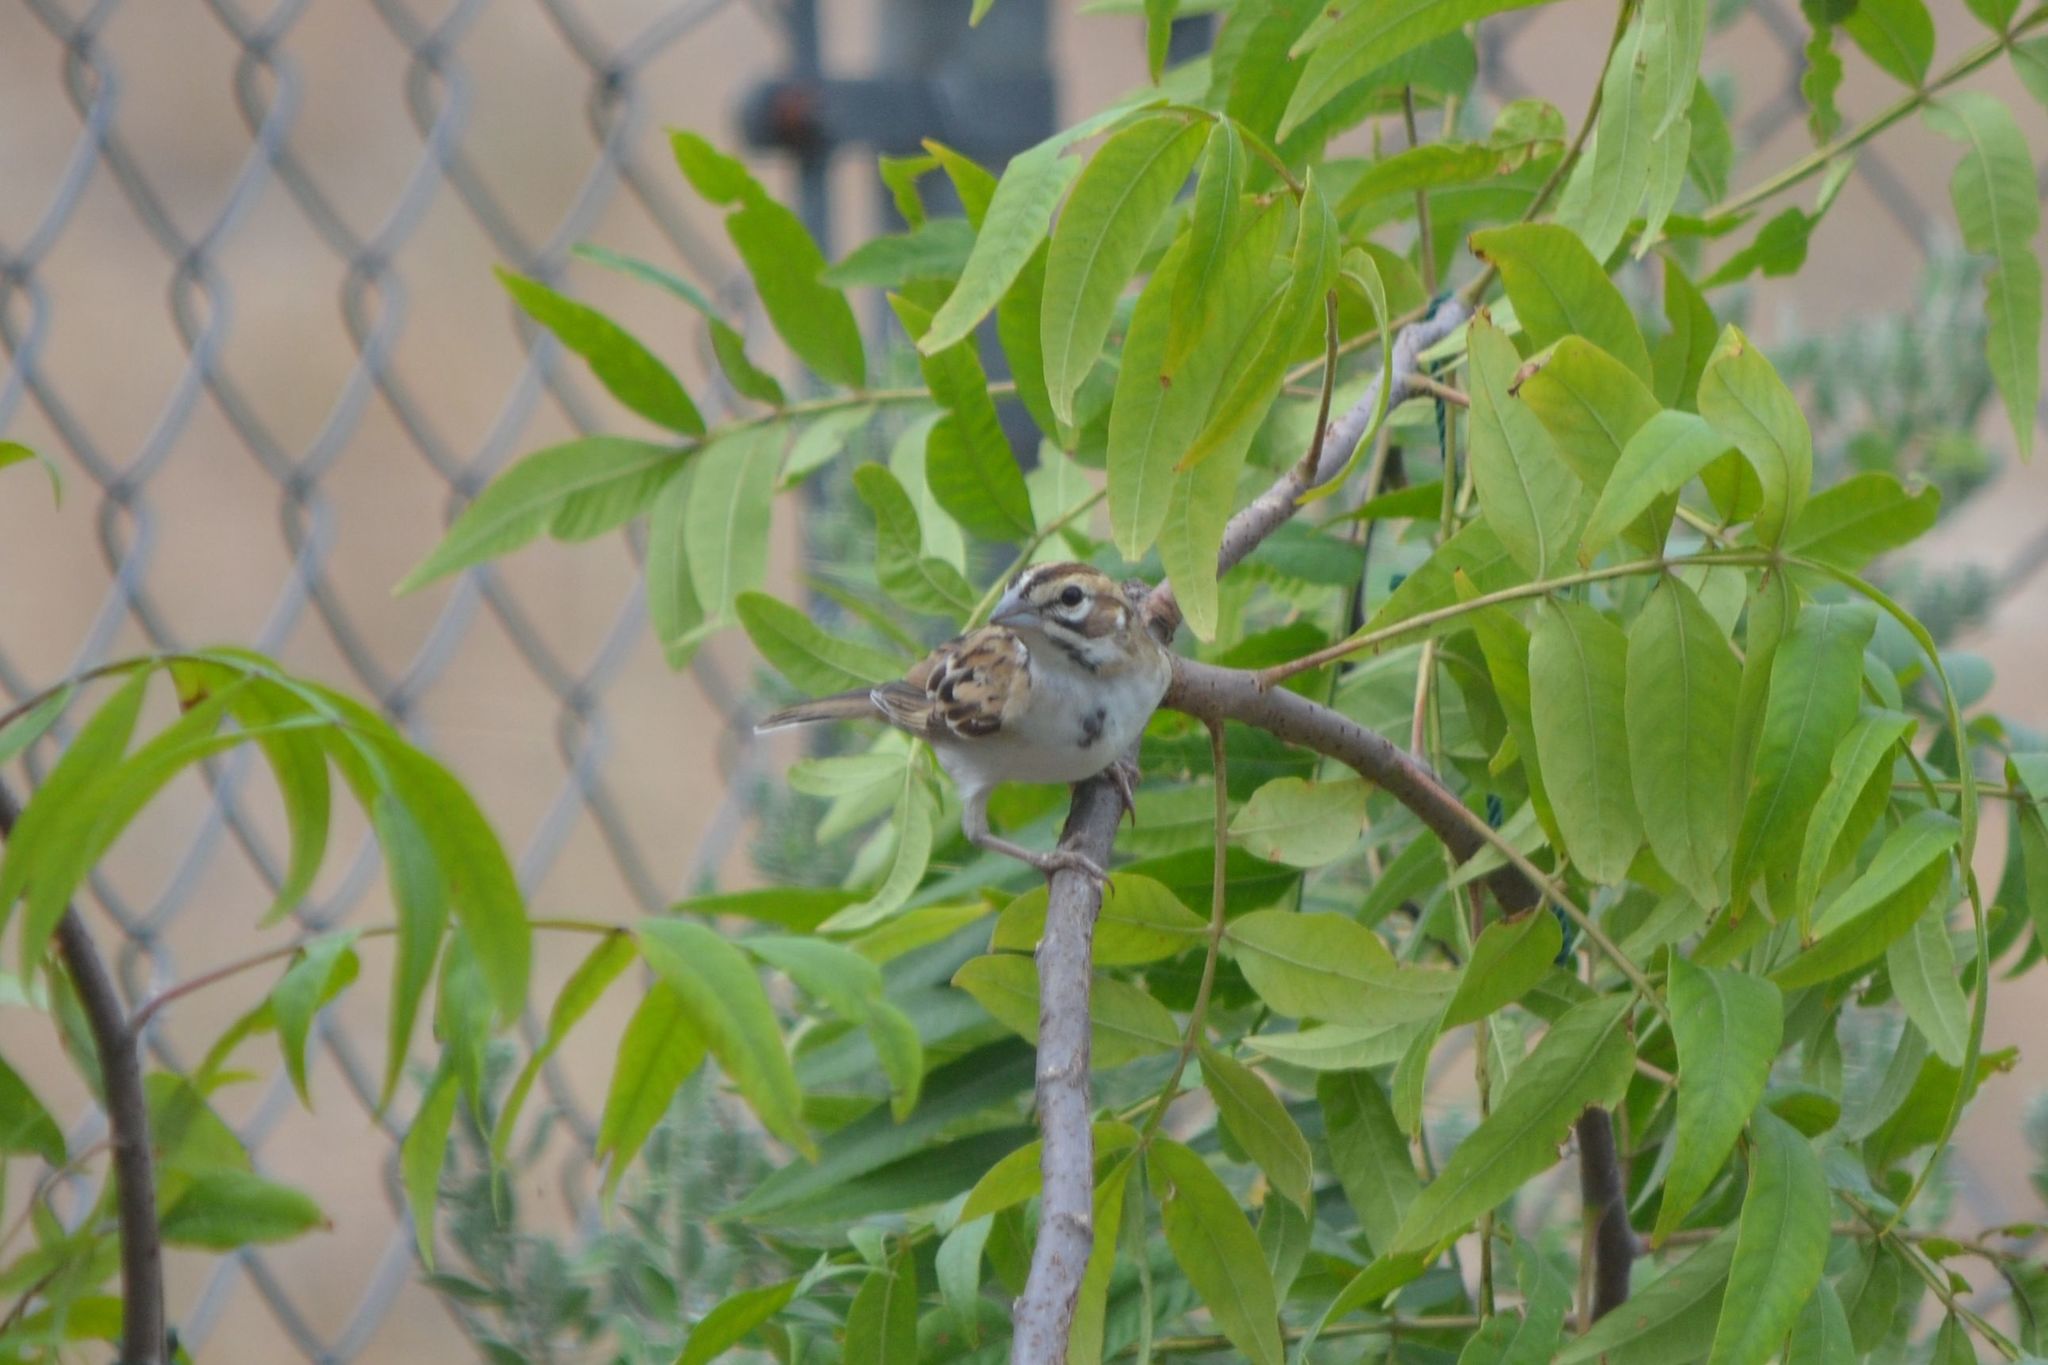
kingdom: Animalia
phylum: Chordata
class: Aves
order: Passeriformes
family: Passerellidae
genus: Chondestes
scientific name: Chondestes grammacus
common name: Lark sparrow
